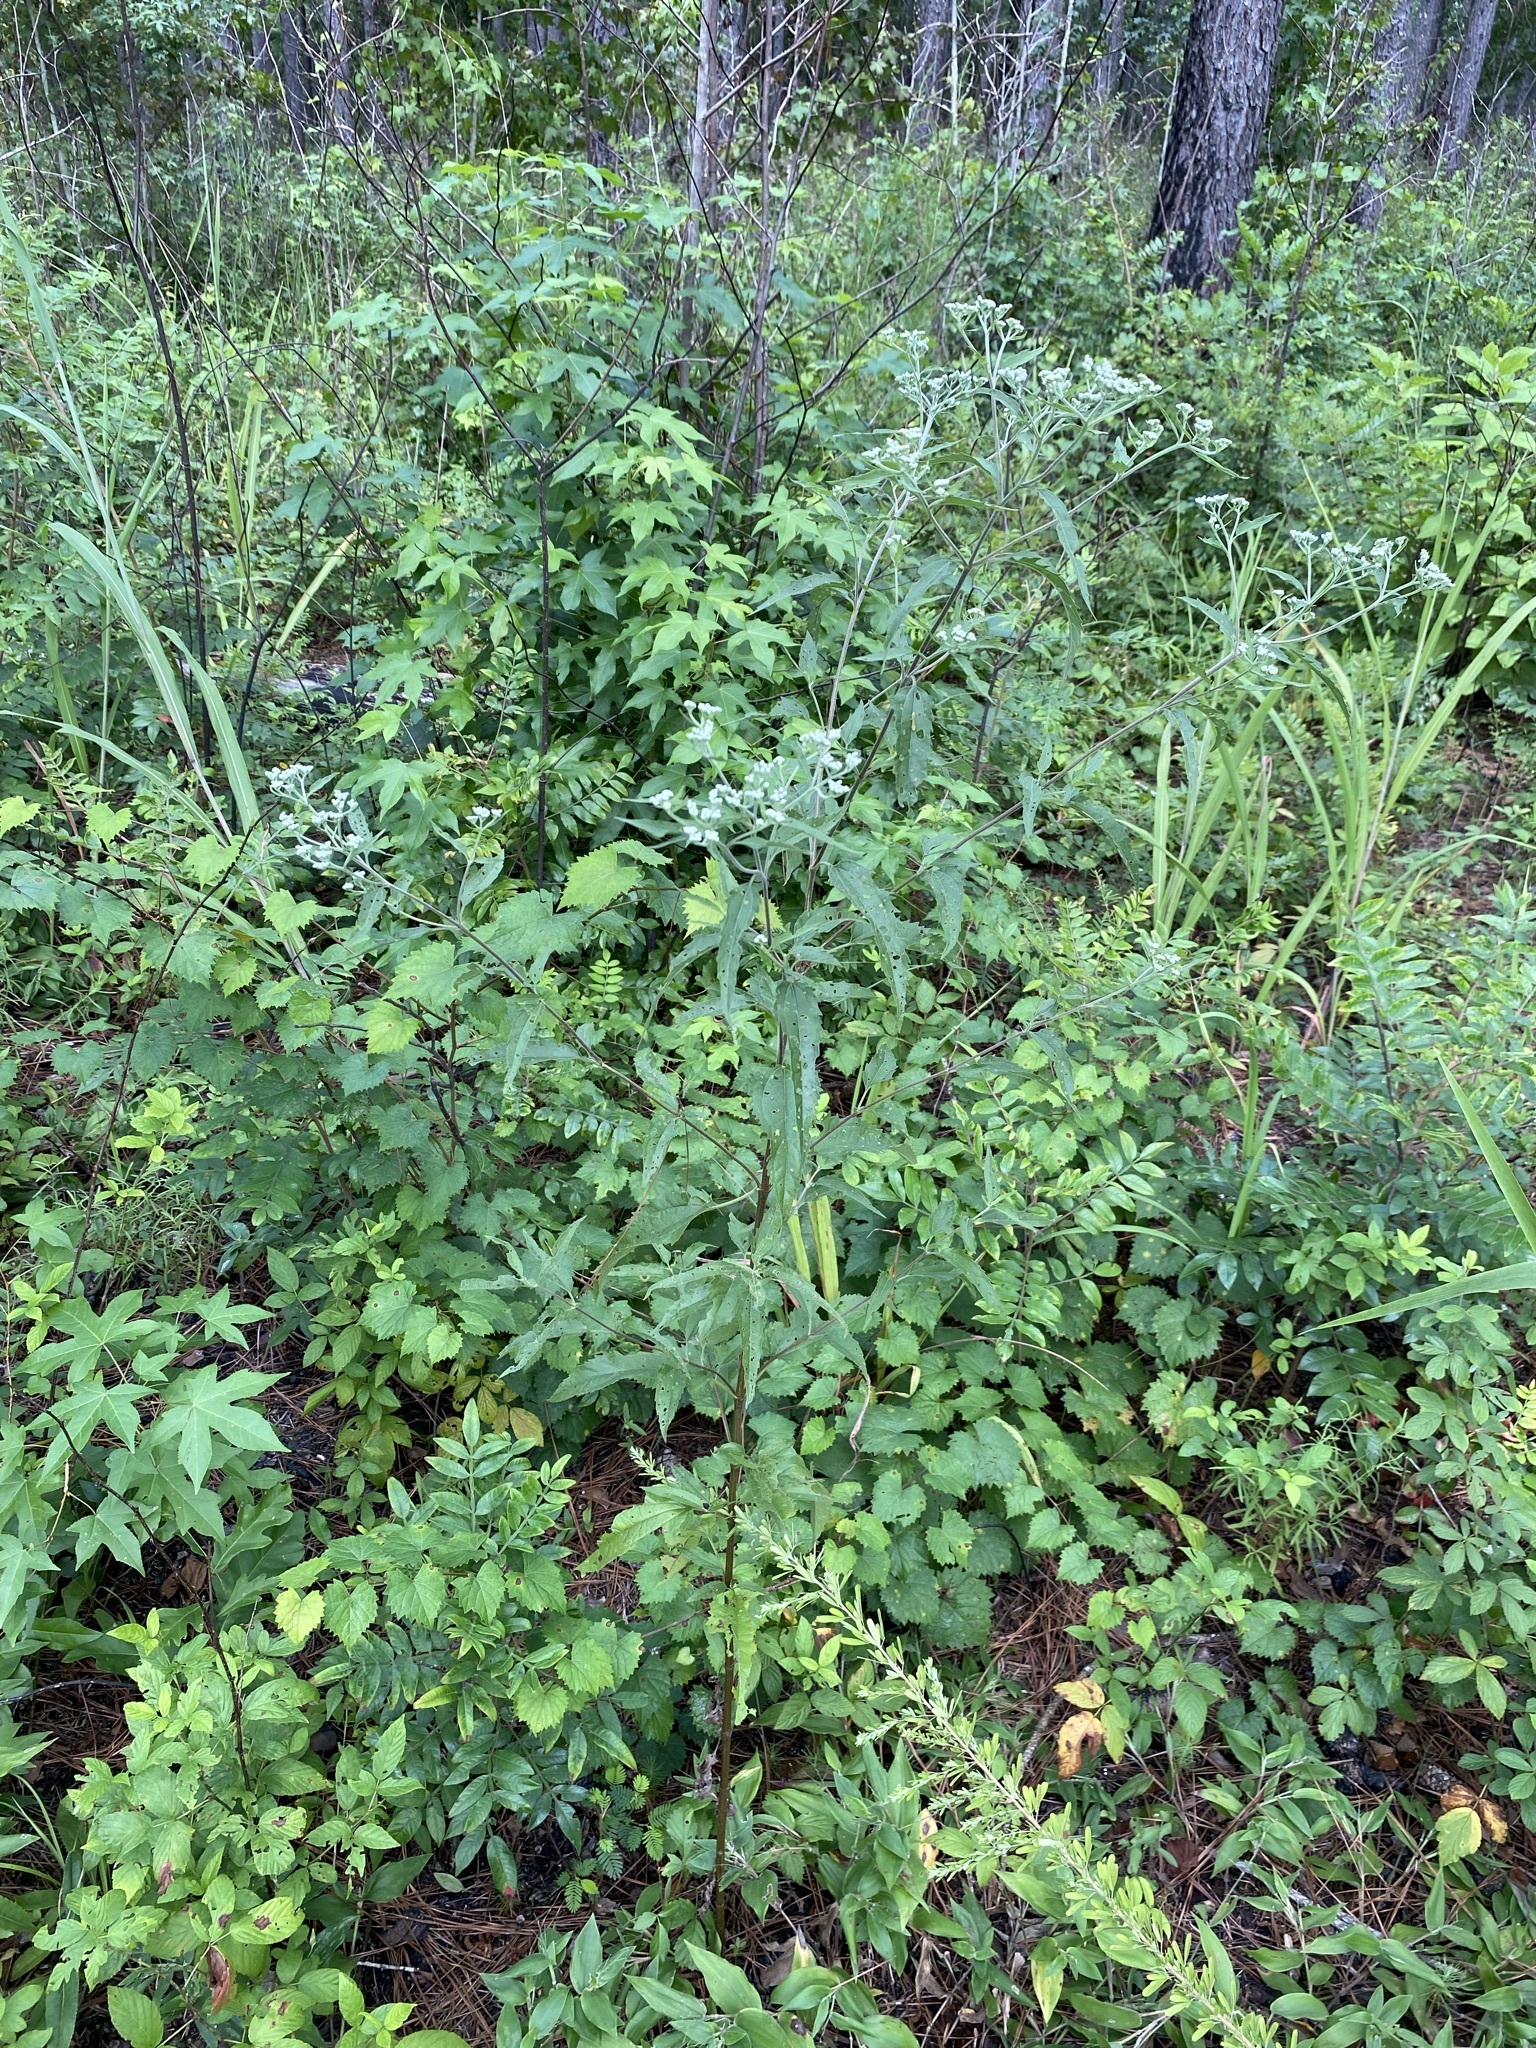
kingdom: Plantae
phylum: Tracheophyta
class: Magnoliopsida
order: Asterales
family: Asteraceae
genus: Eupatorium
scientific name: Eupatorium serotinum
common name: Late boneset
